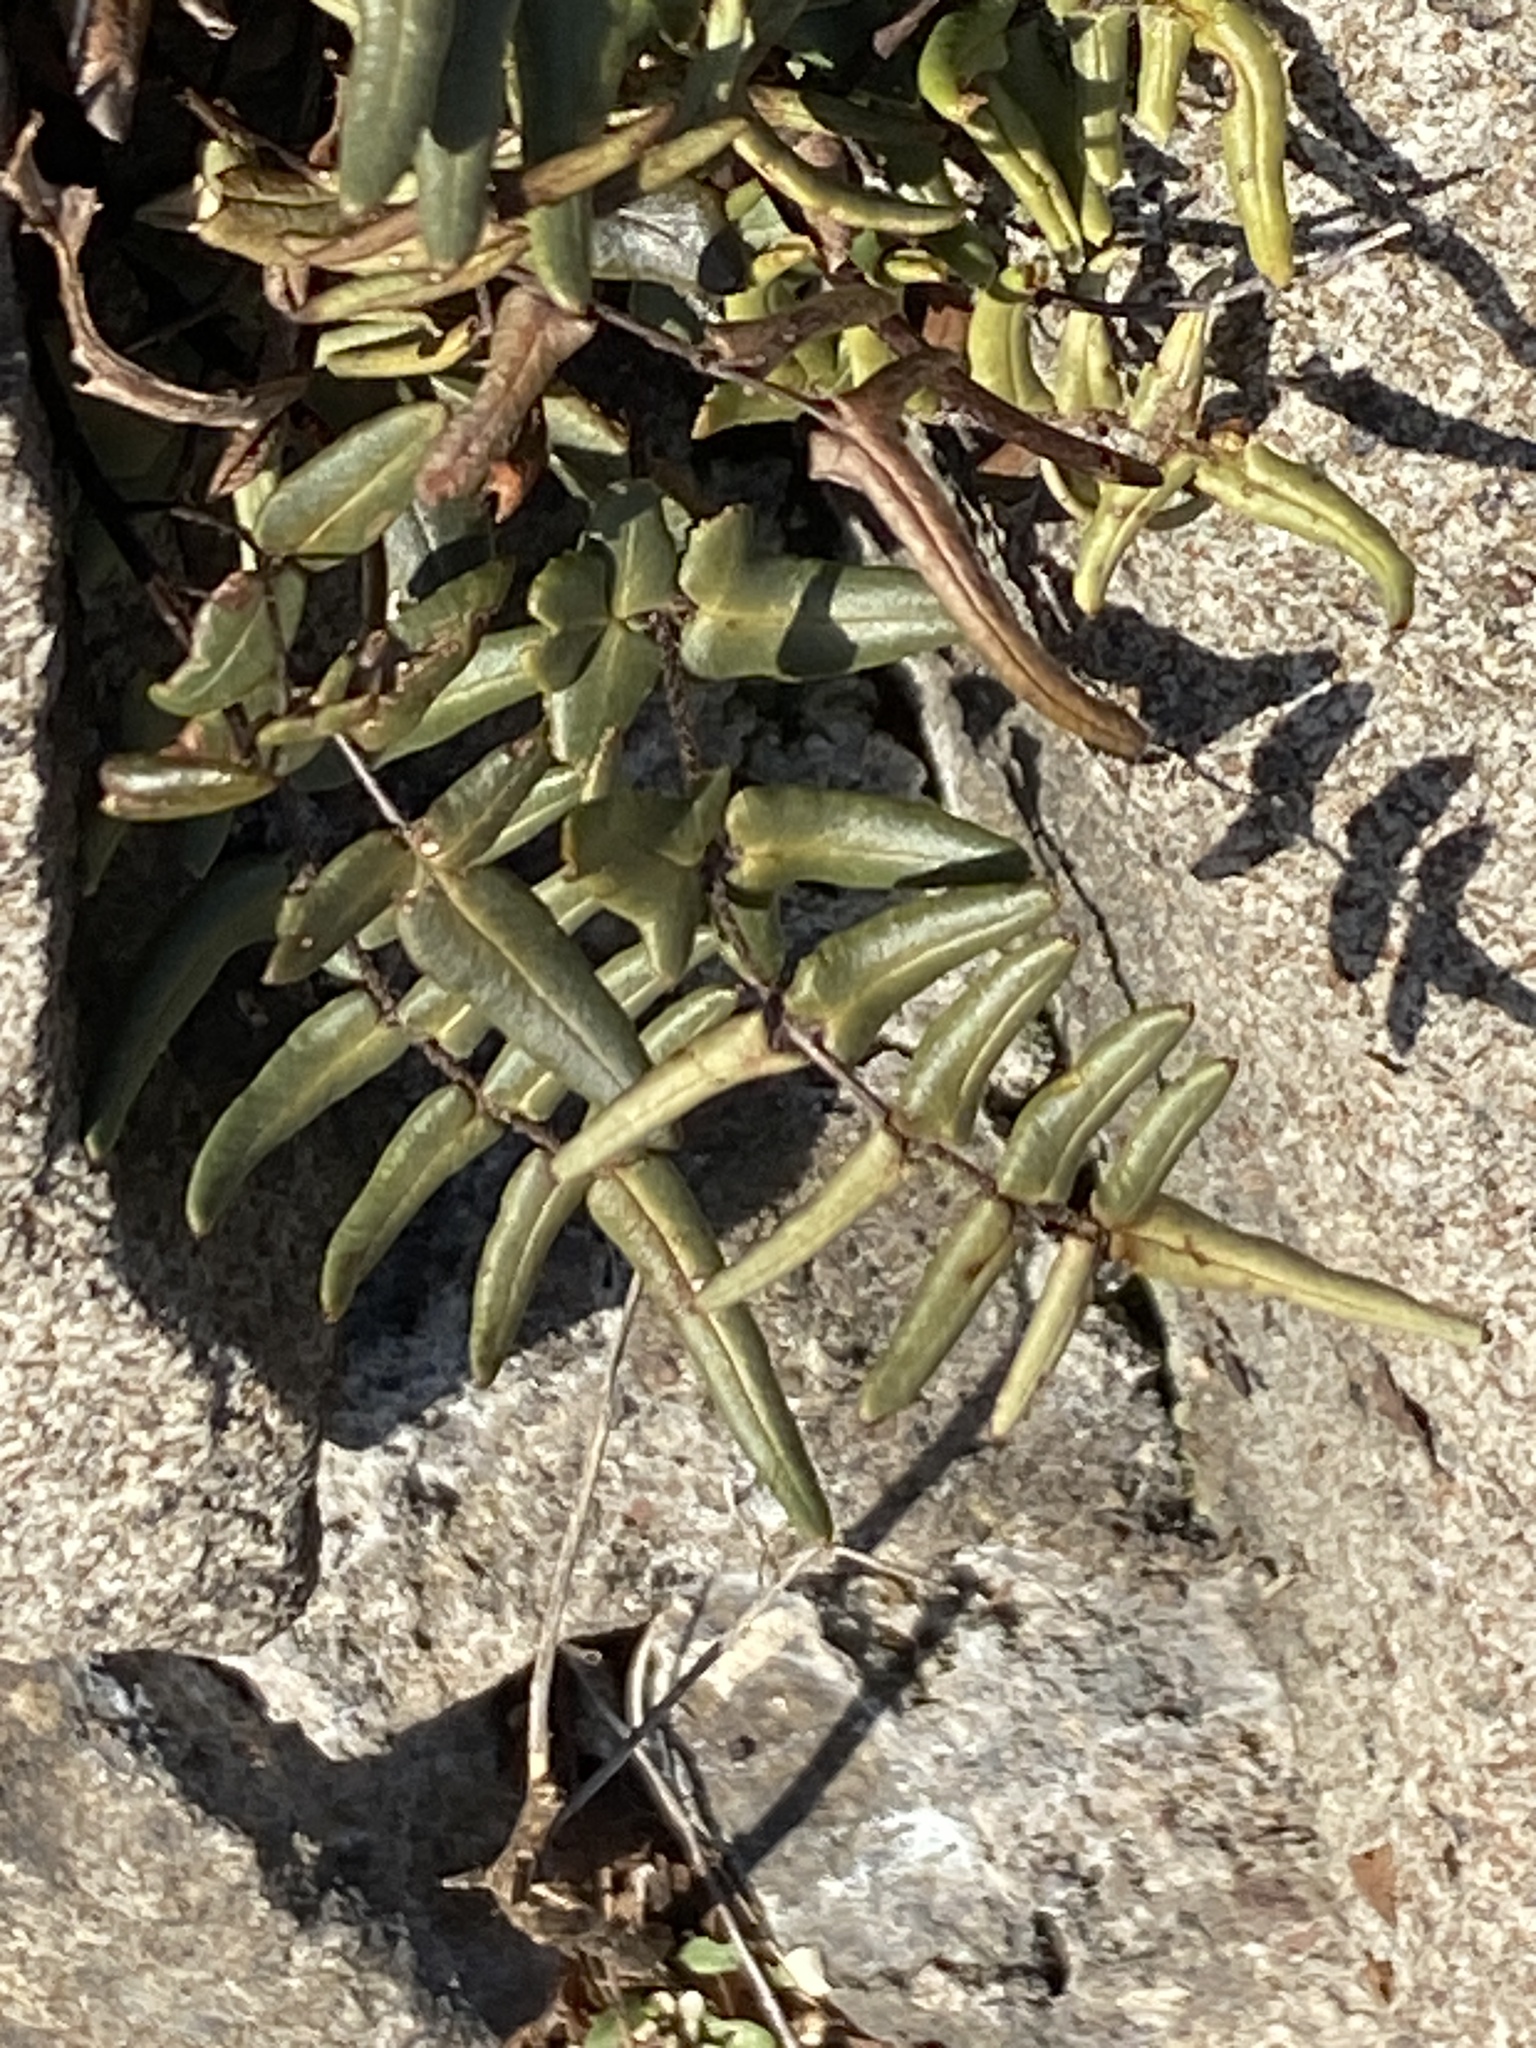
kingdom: Plantae
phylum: Tracheophyta
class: Polypodiopsida
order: Polypodiales
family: Pteridaceae
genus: Pellaea
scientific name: Pellaea atropurpurea
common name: Hairy cliffbrake
